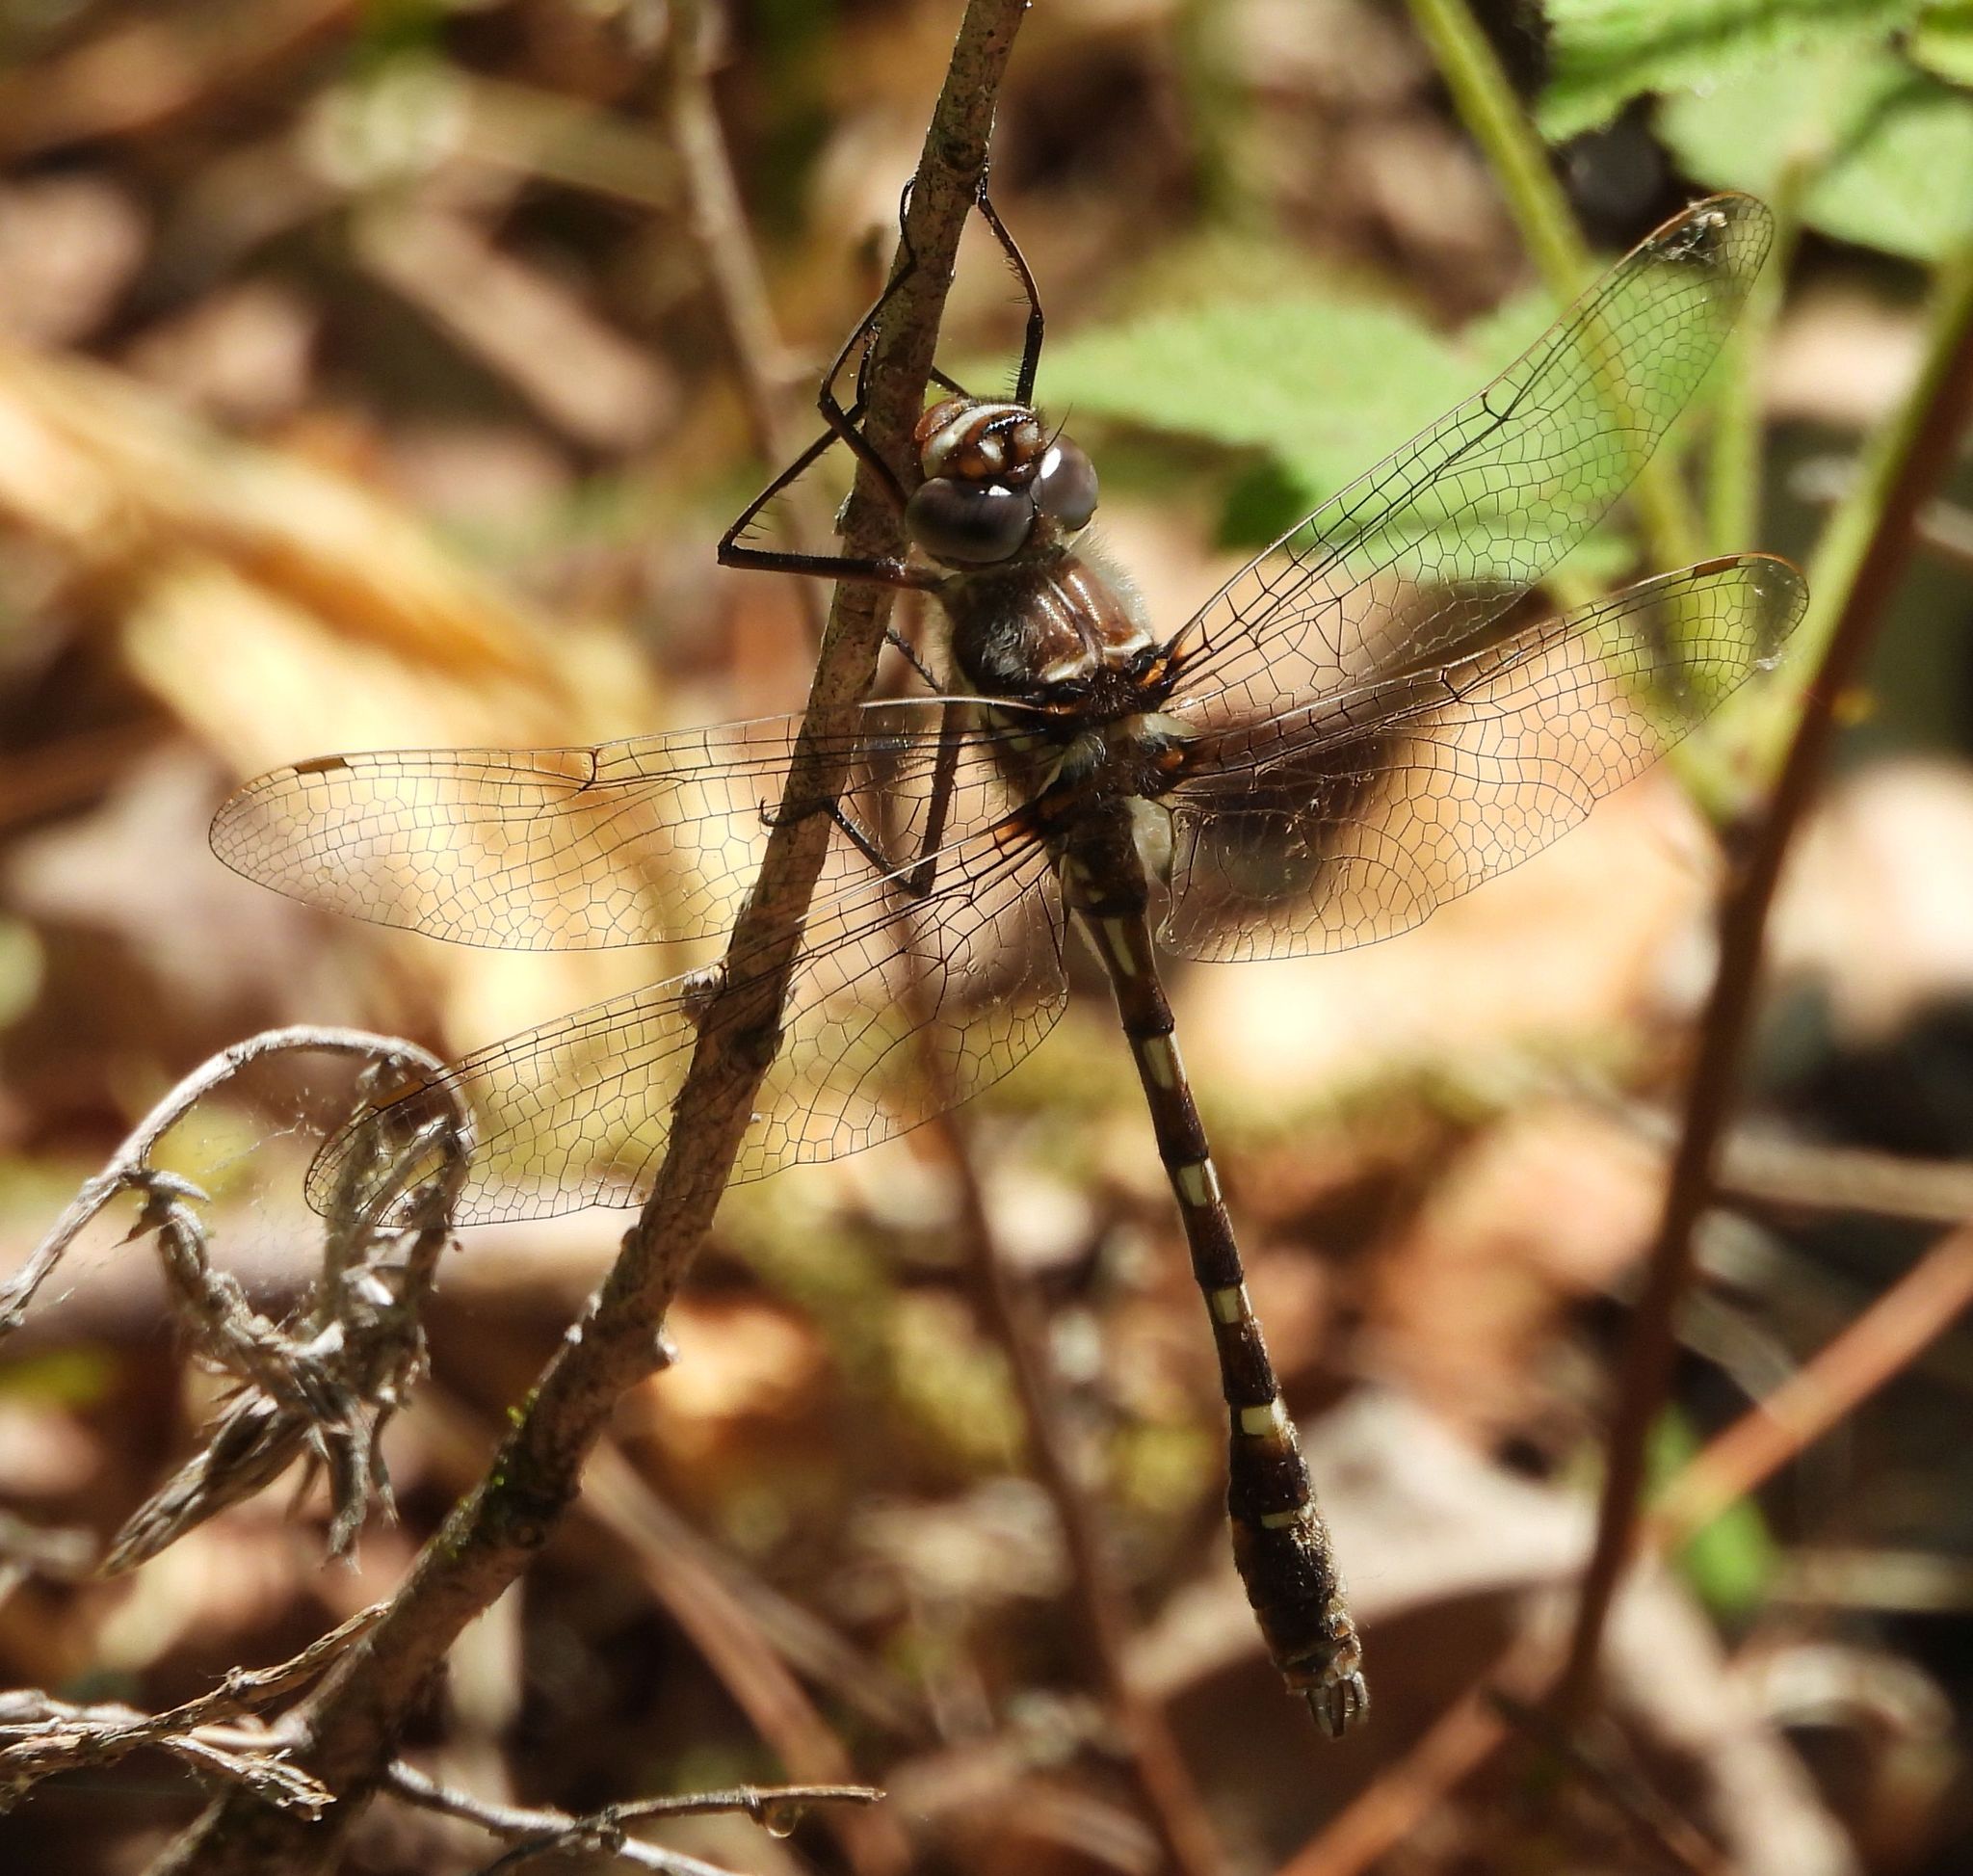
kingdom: Animalia
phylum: Arthropoda
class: Insecta
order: Odonata
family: Macromiidae
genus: Didymops
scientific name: Didymops transversa
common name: Stream cruiser
